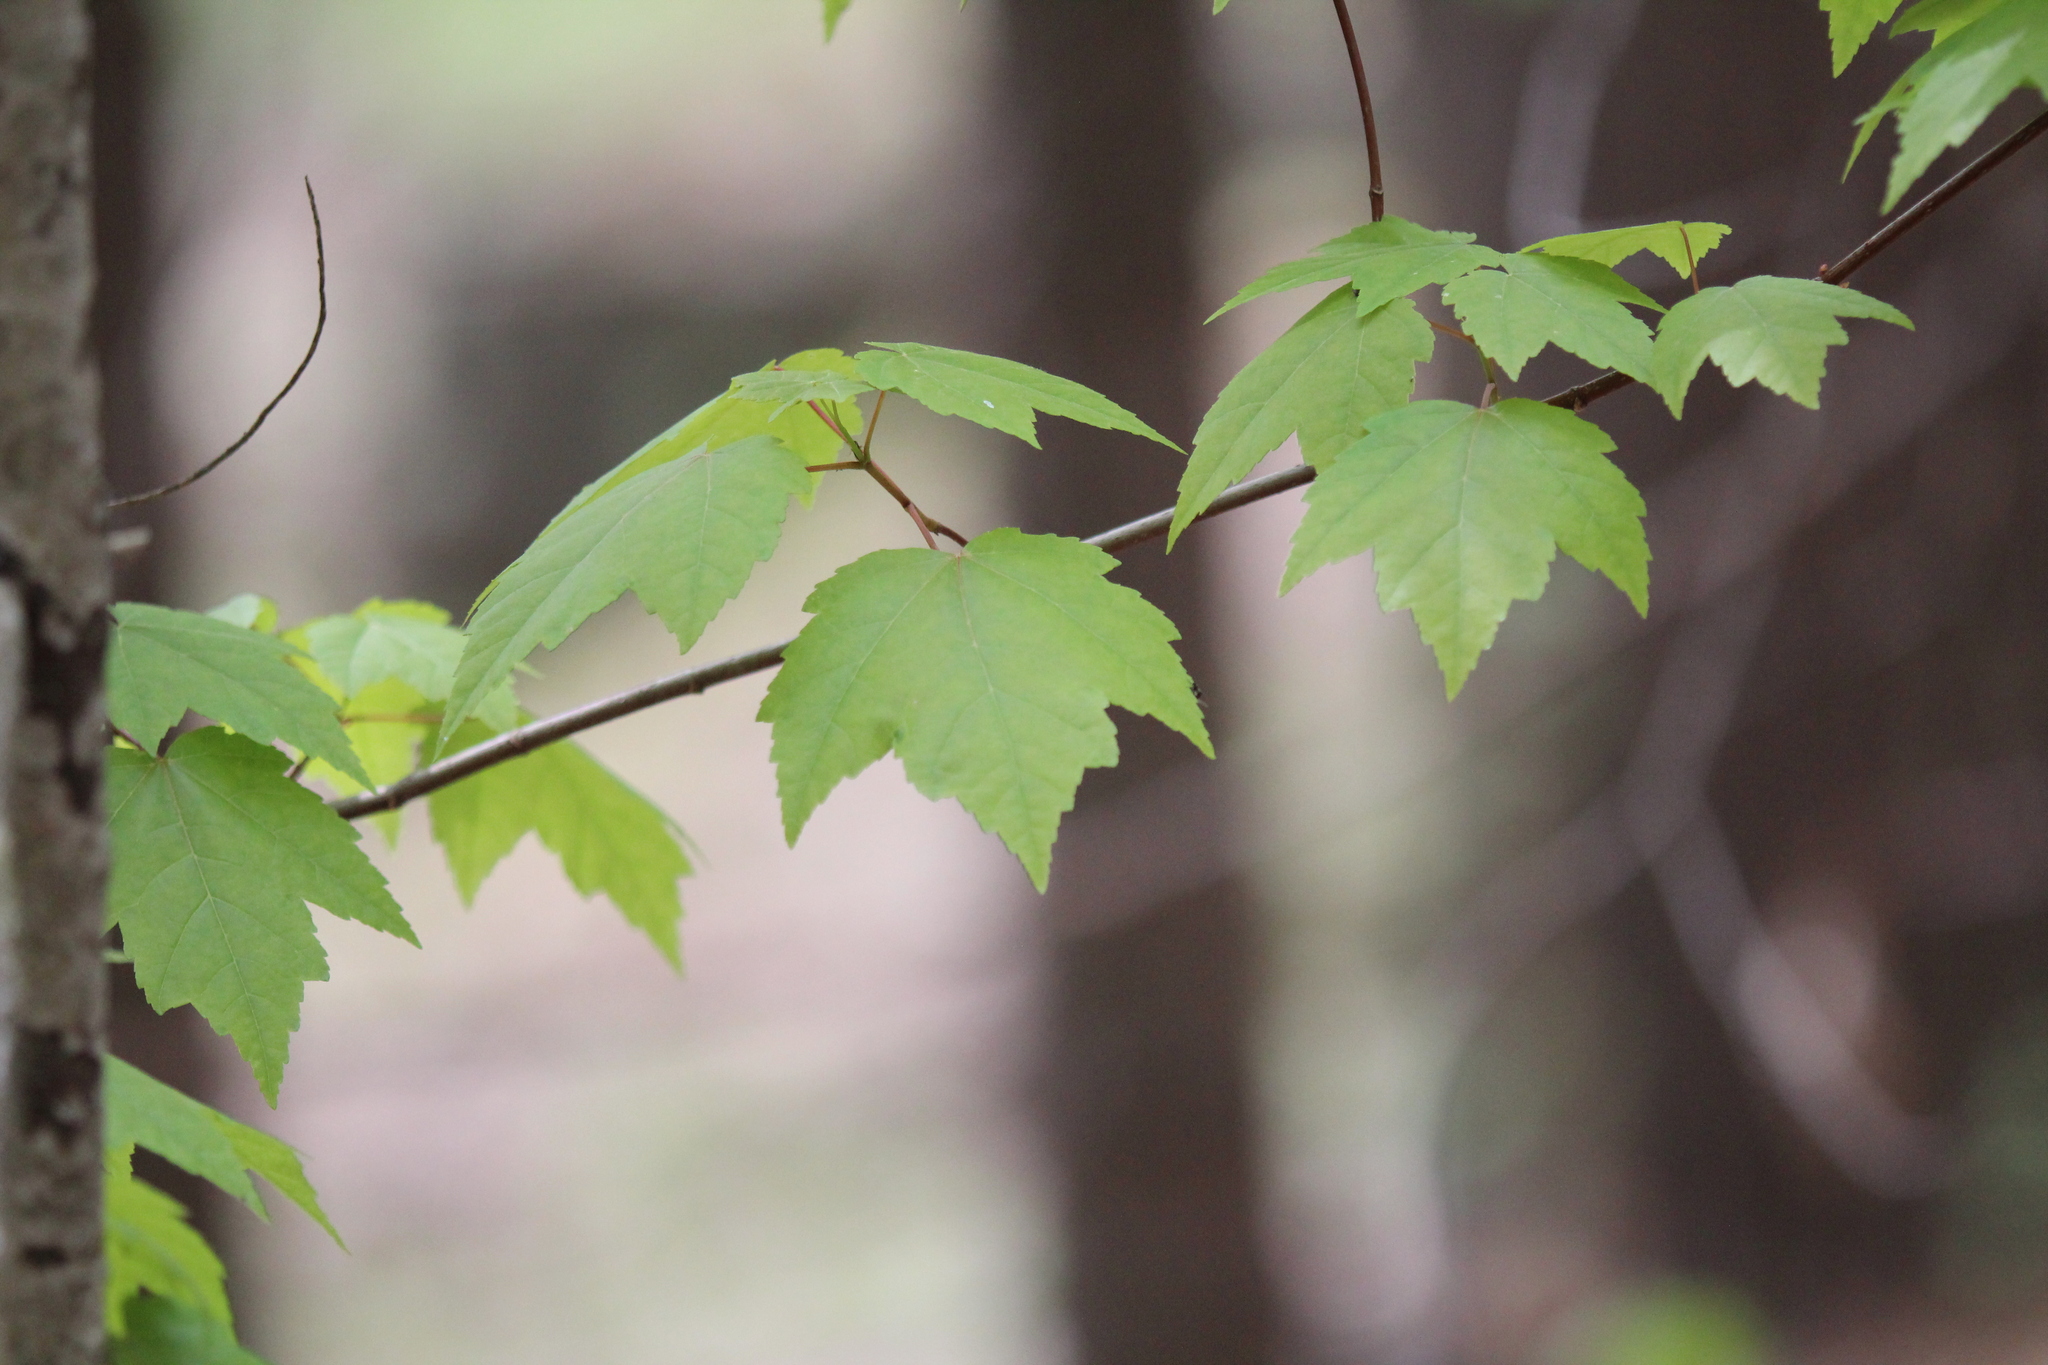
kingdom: Plantae
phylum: Tracheophyta
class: Magnoliopsida
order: Sapindales
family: Sapindaceae
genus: Acer
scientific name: Acer rubrum
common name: Red maple
